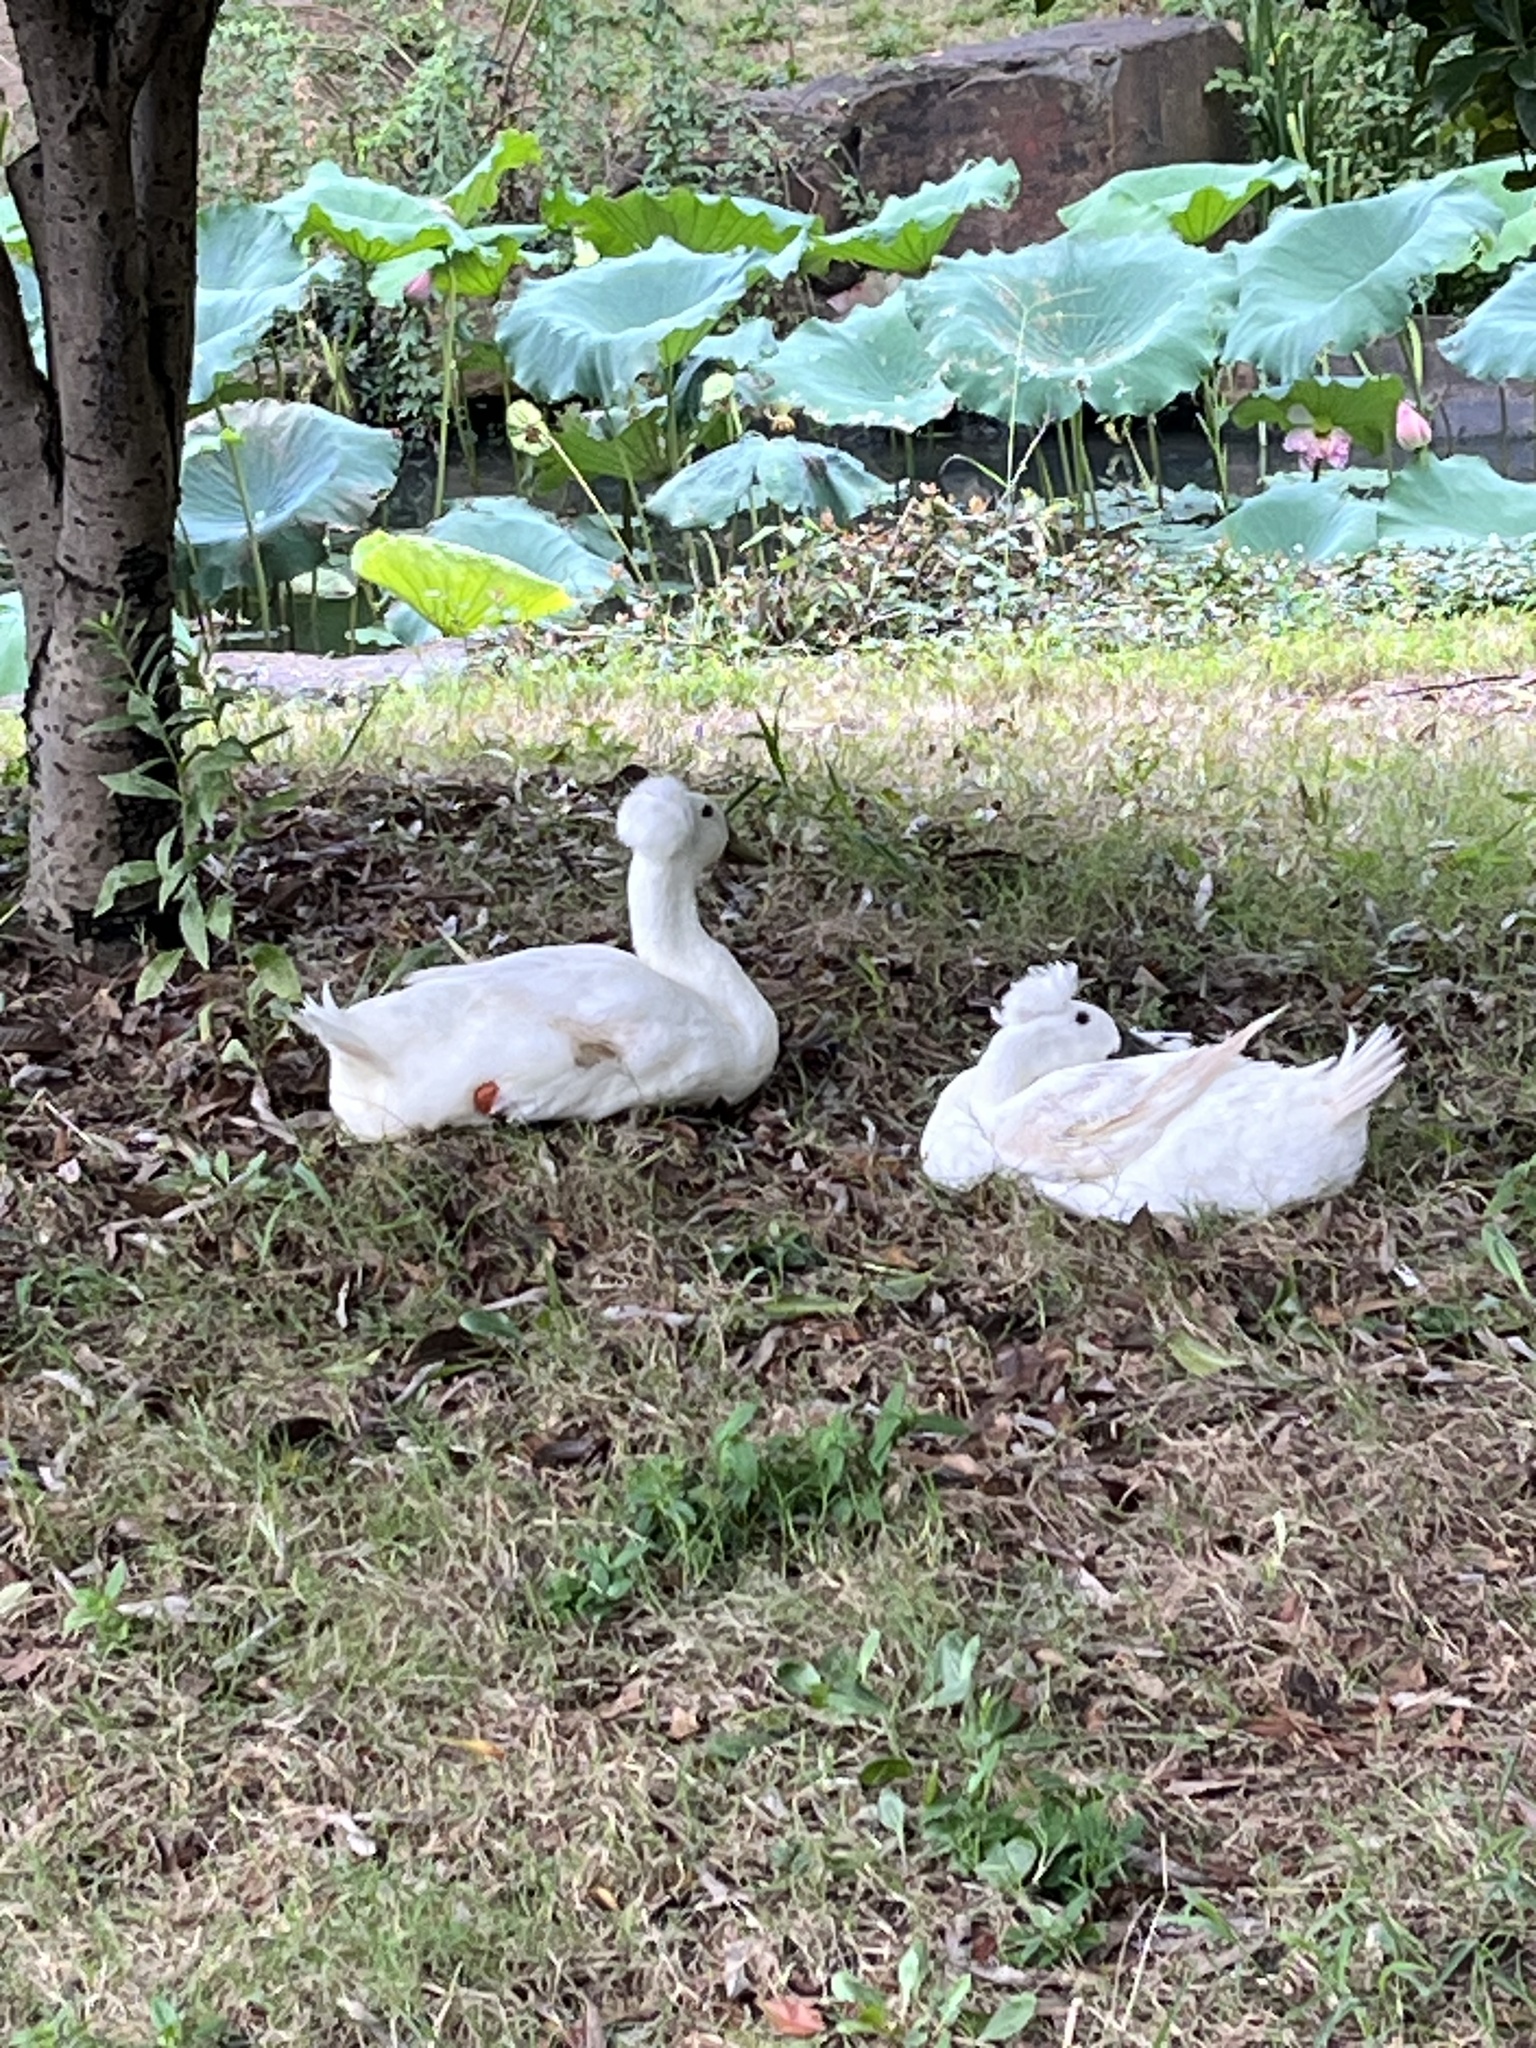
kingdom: Animalia
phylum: Chordata
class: Aves
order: Anseriformes
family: Anatidae
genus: Anas
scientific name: Anas platyrhynchos
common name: Mallard
